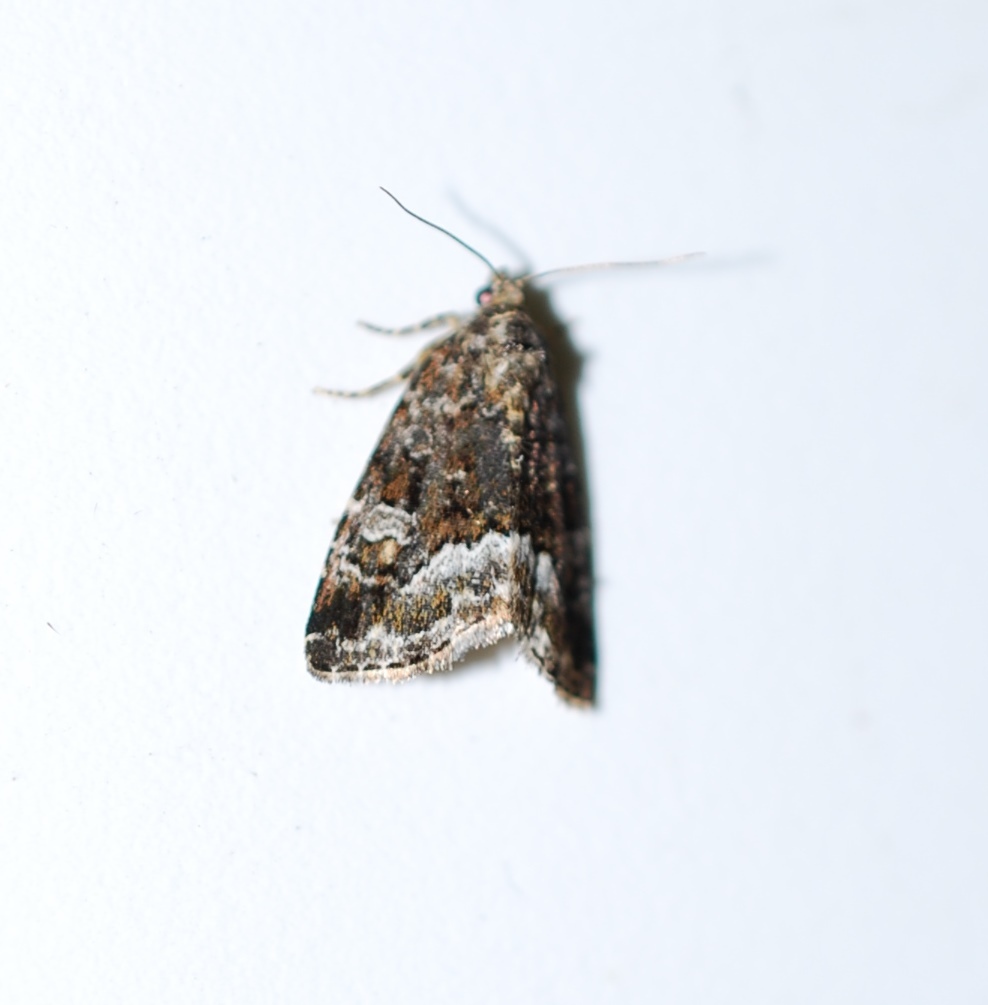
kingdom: Animalia
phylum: Arthropoda
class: Insecta
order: Lepidoptera
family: Noctuidae
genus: Deltote
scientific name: Deltote pygarga
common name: Marbled white spot
